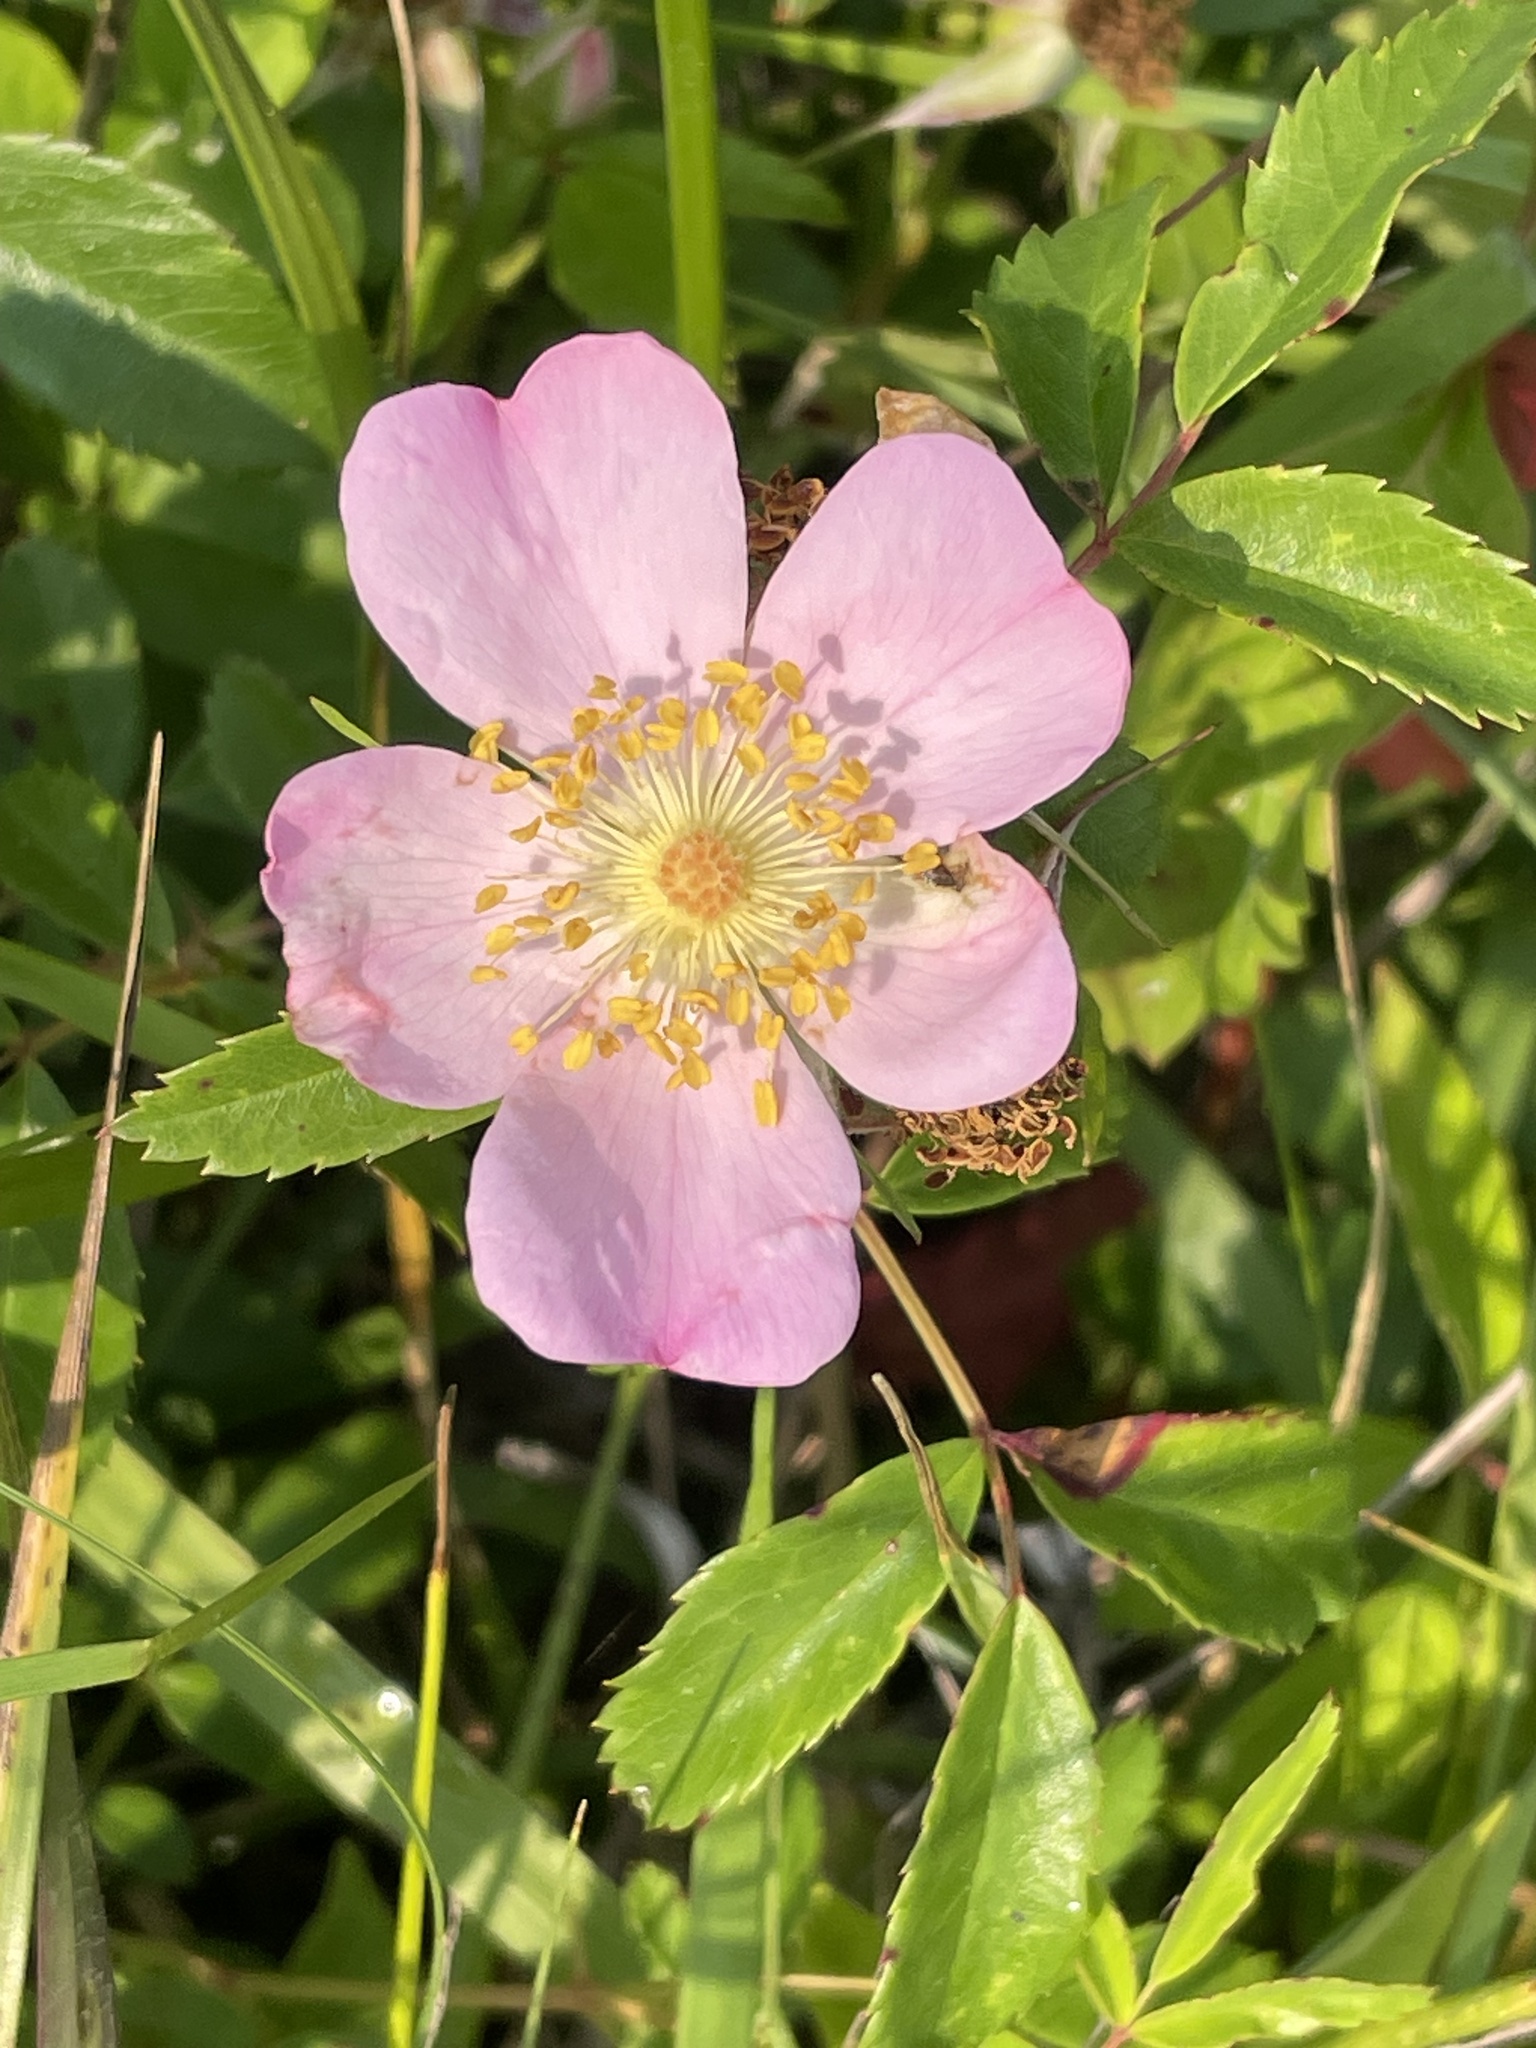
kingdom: Plantae
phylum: Tracheophyta
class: Magnoliopsida
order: Rosales
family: Rosaceae
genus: Rosa
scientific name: Rosa carolina
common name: Pasture rose
